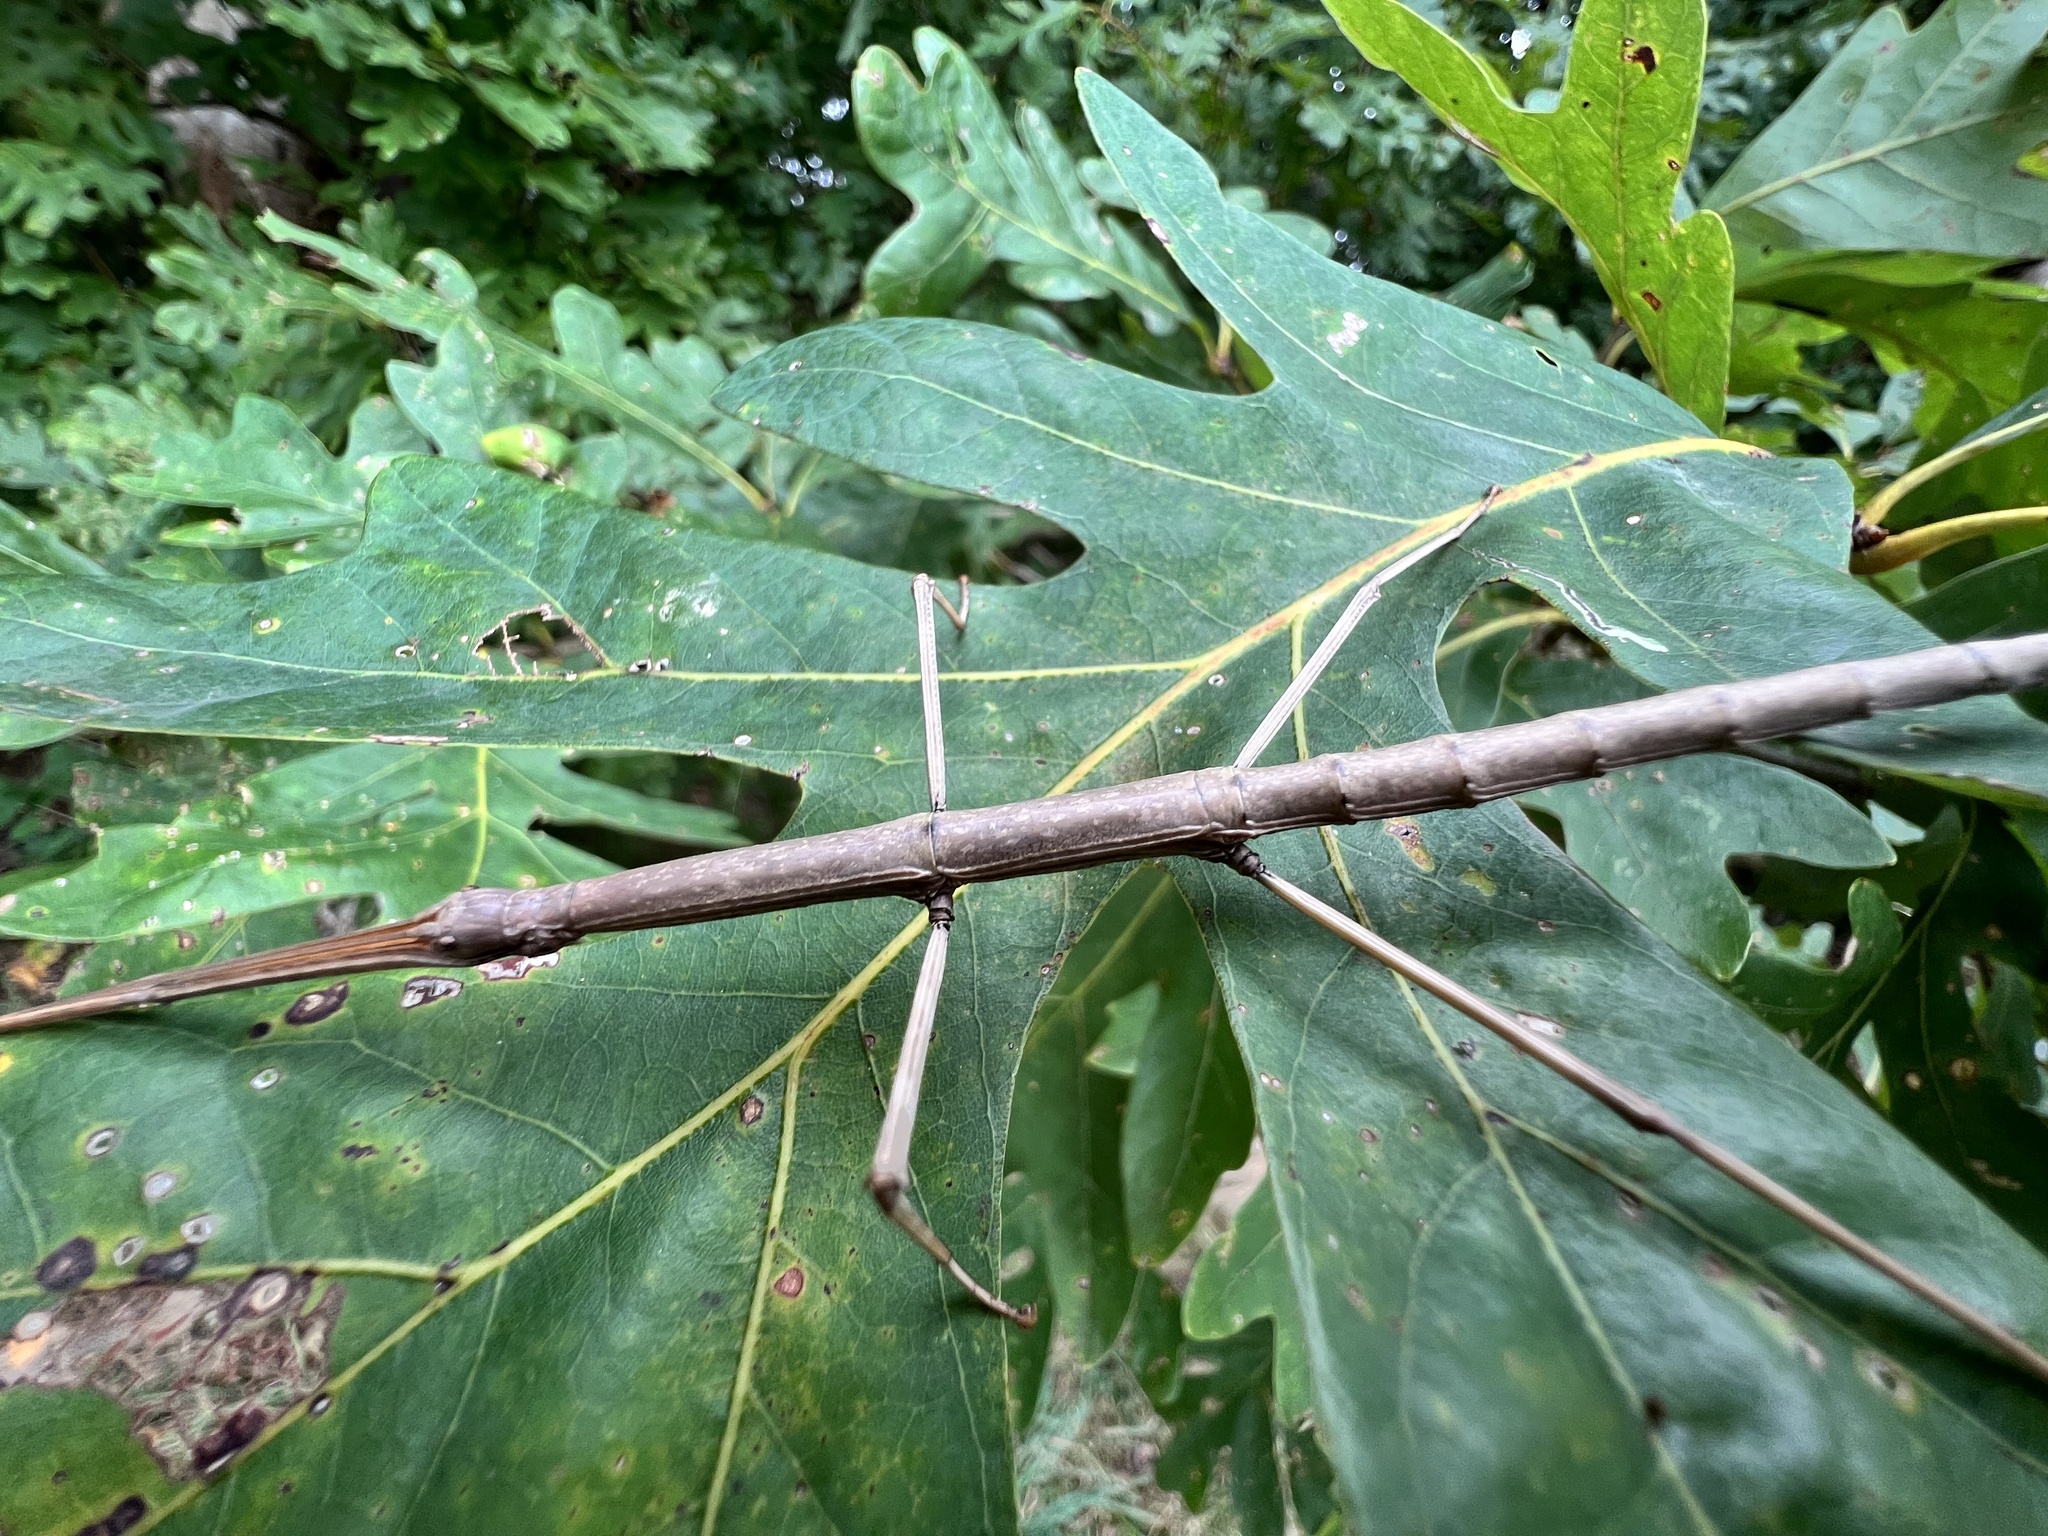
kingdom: Animalia
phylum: Arthropoda
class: Insecta
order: Phasmida
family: Diapheromeridae
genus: Diapheromera
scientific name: Diapheromera femorata
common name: Common american walkingstick
